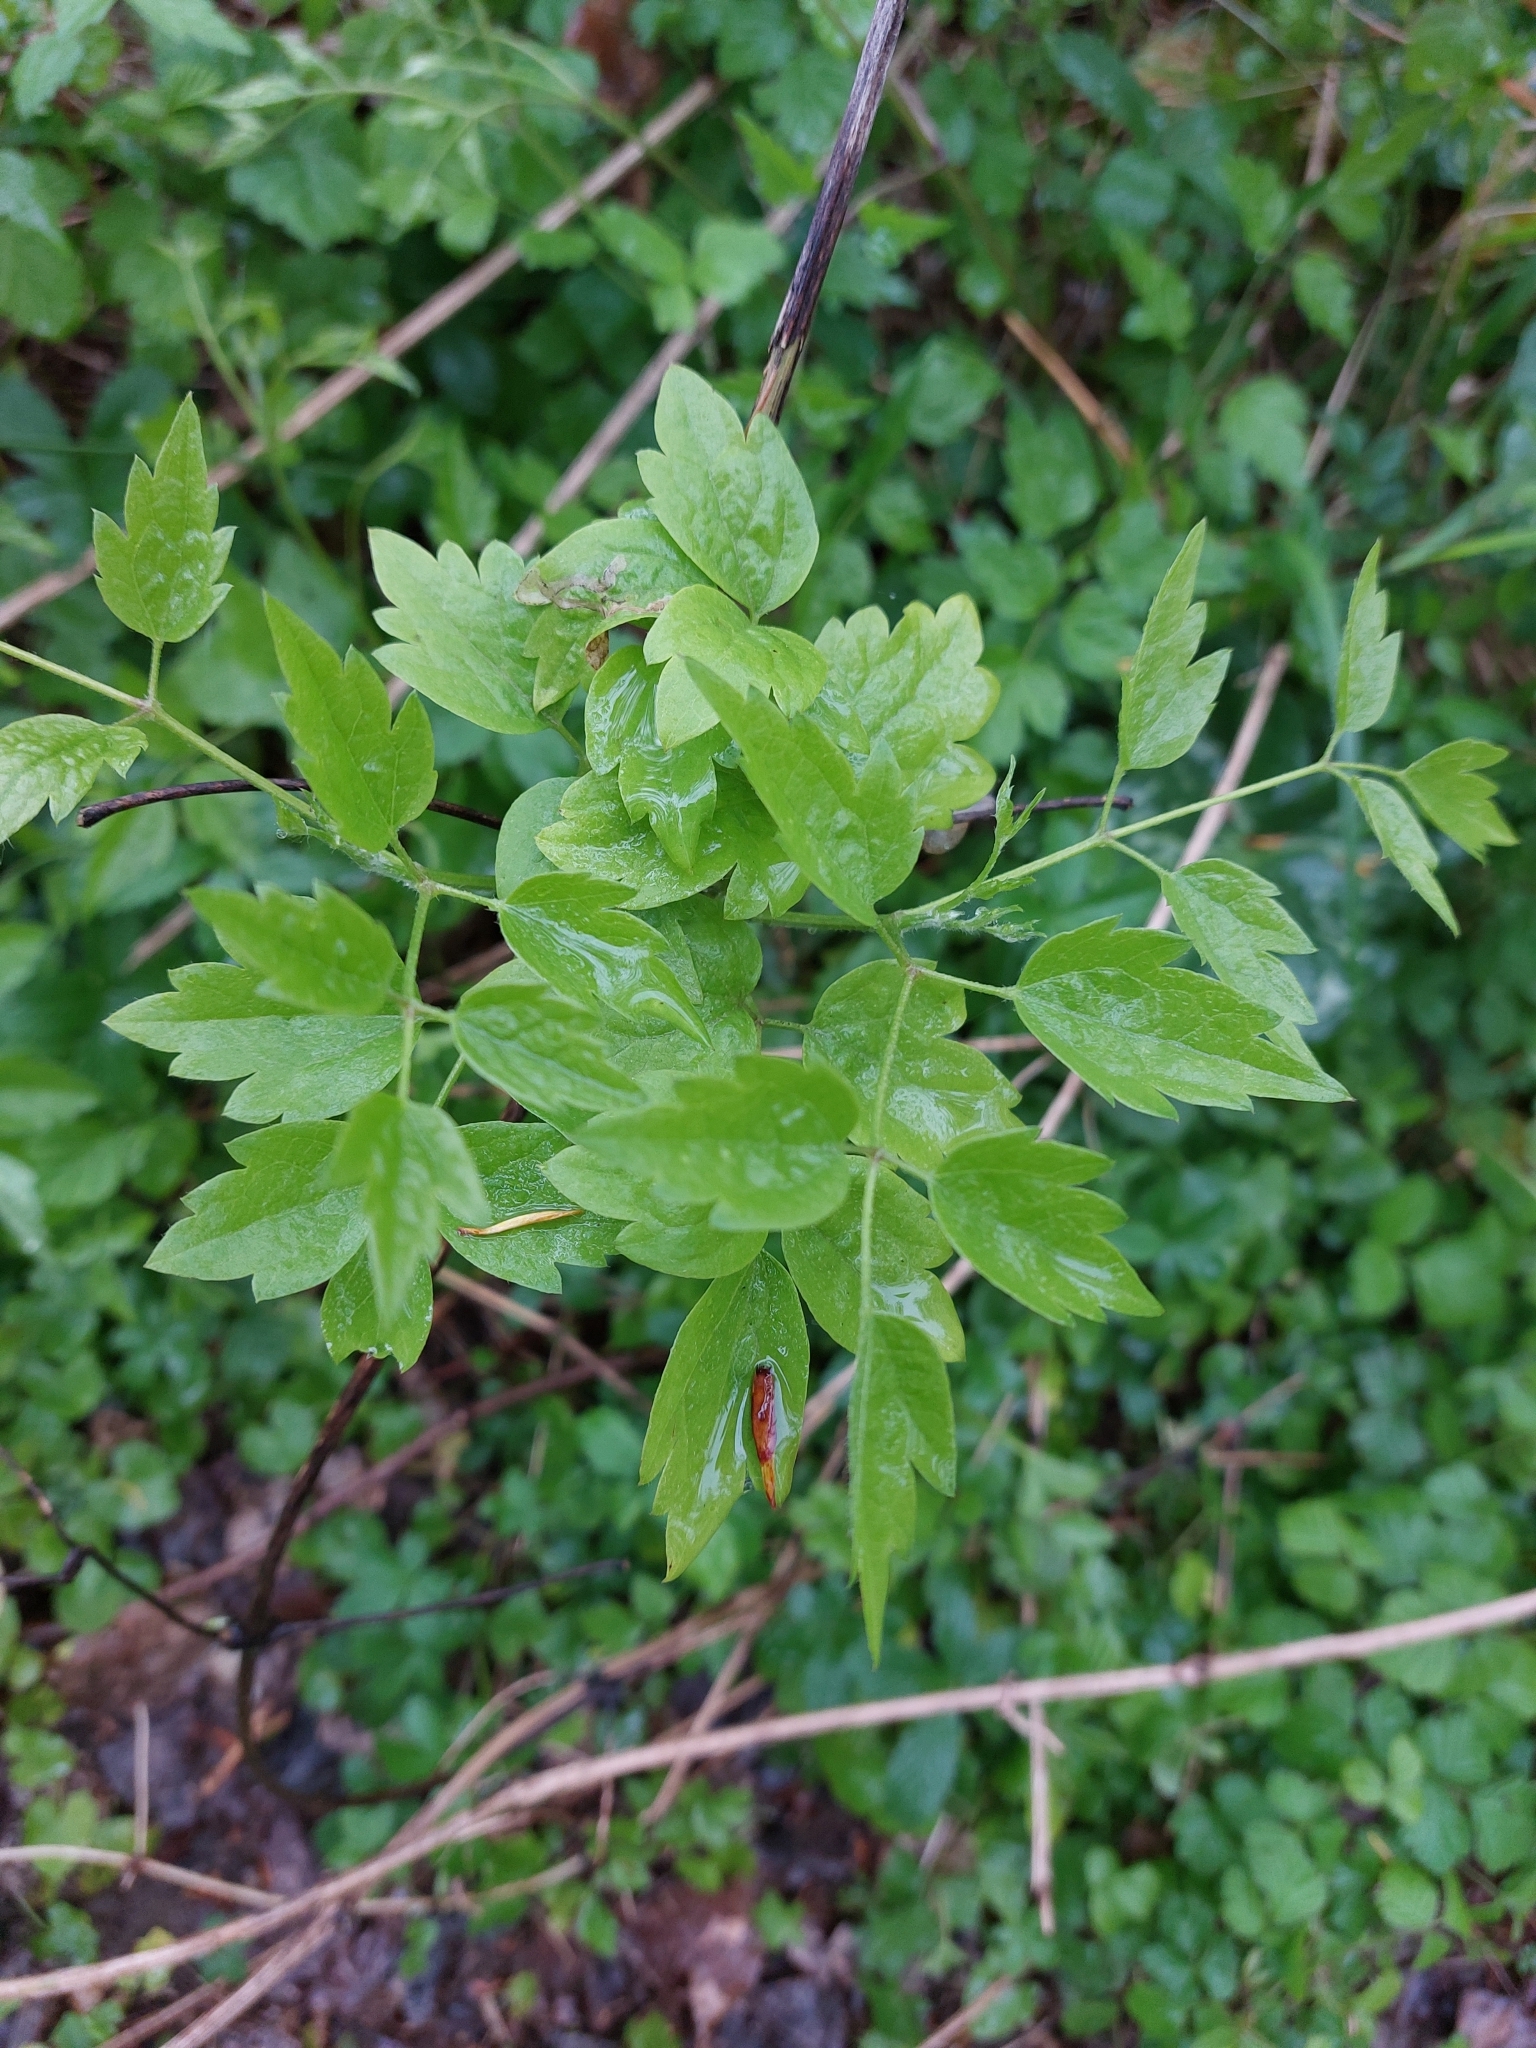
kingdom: Plantae
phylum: Tracheophyta
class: Magnoliopsida
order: Ranunculales
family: Ranunculaceae
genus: Clematis
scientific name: Clematis vitalba
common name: Evergreen clematis
